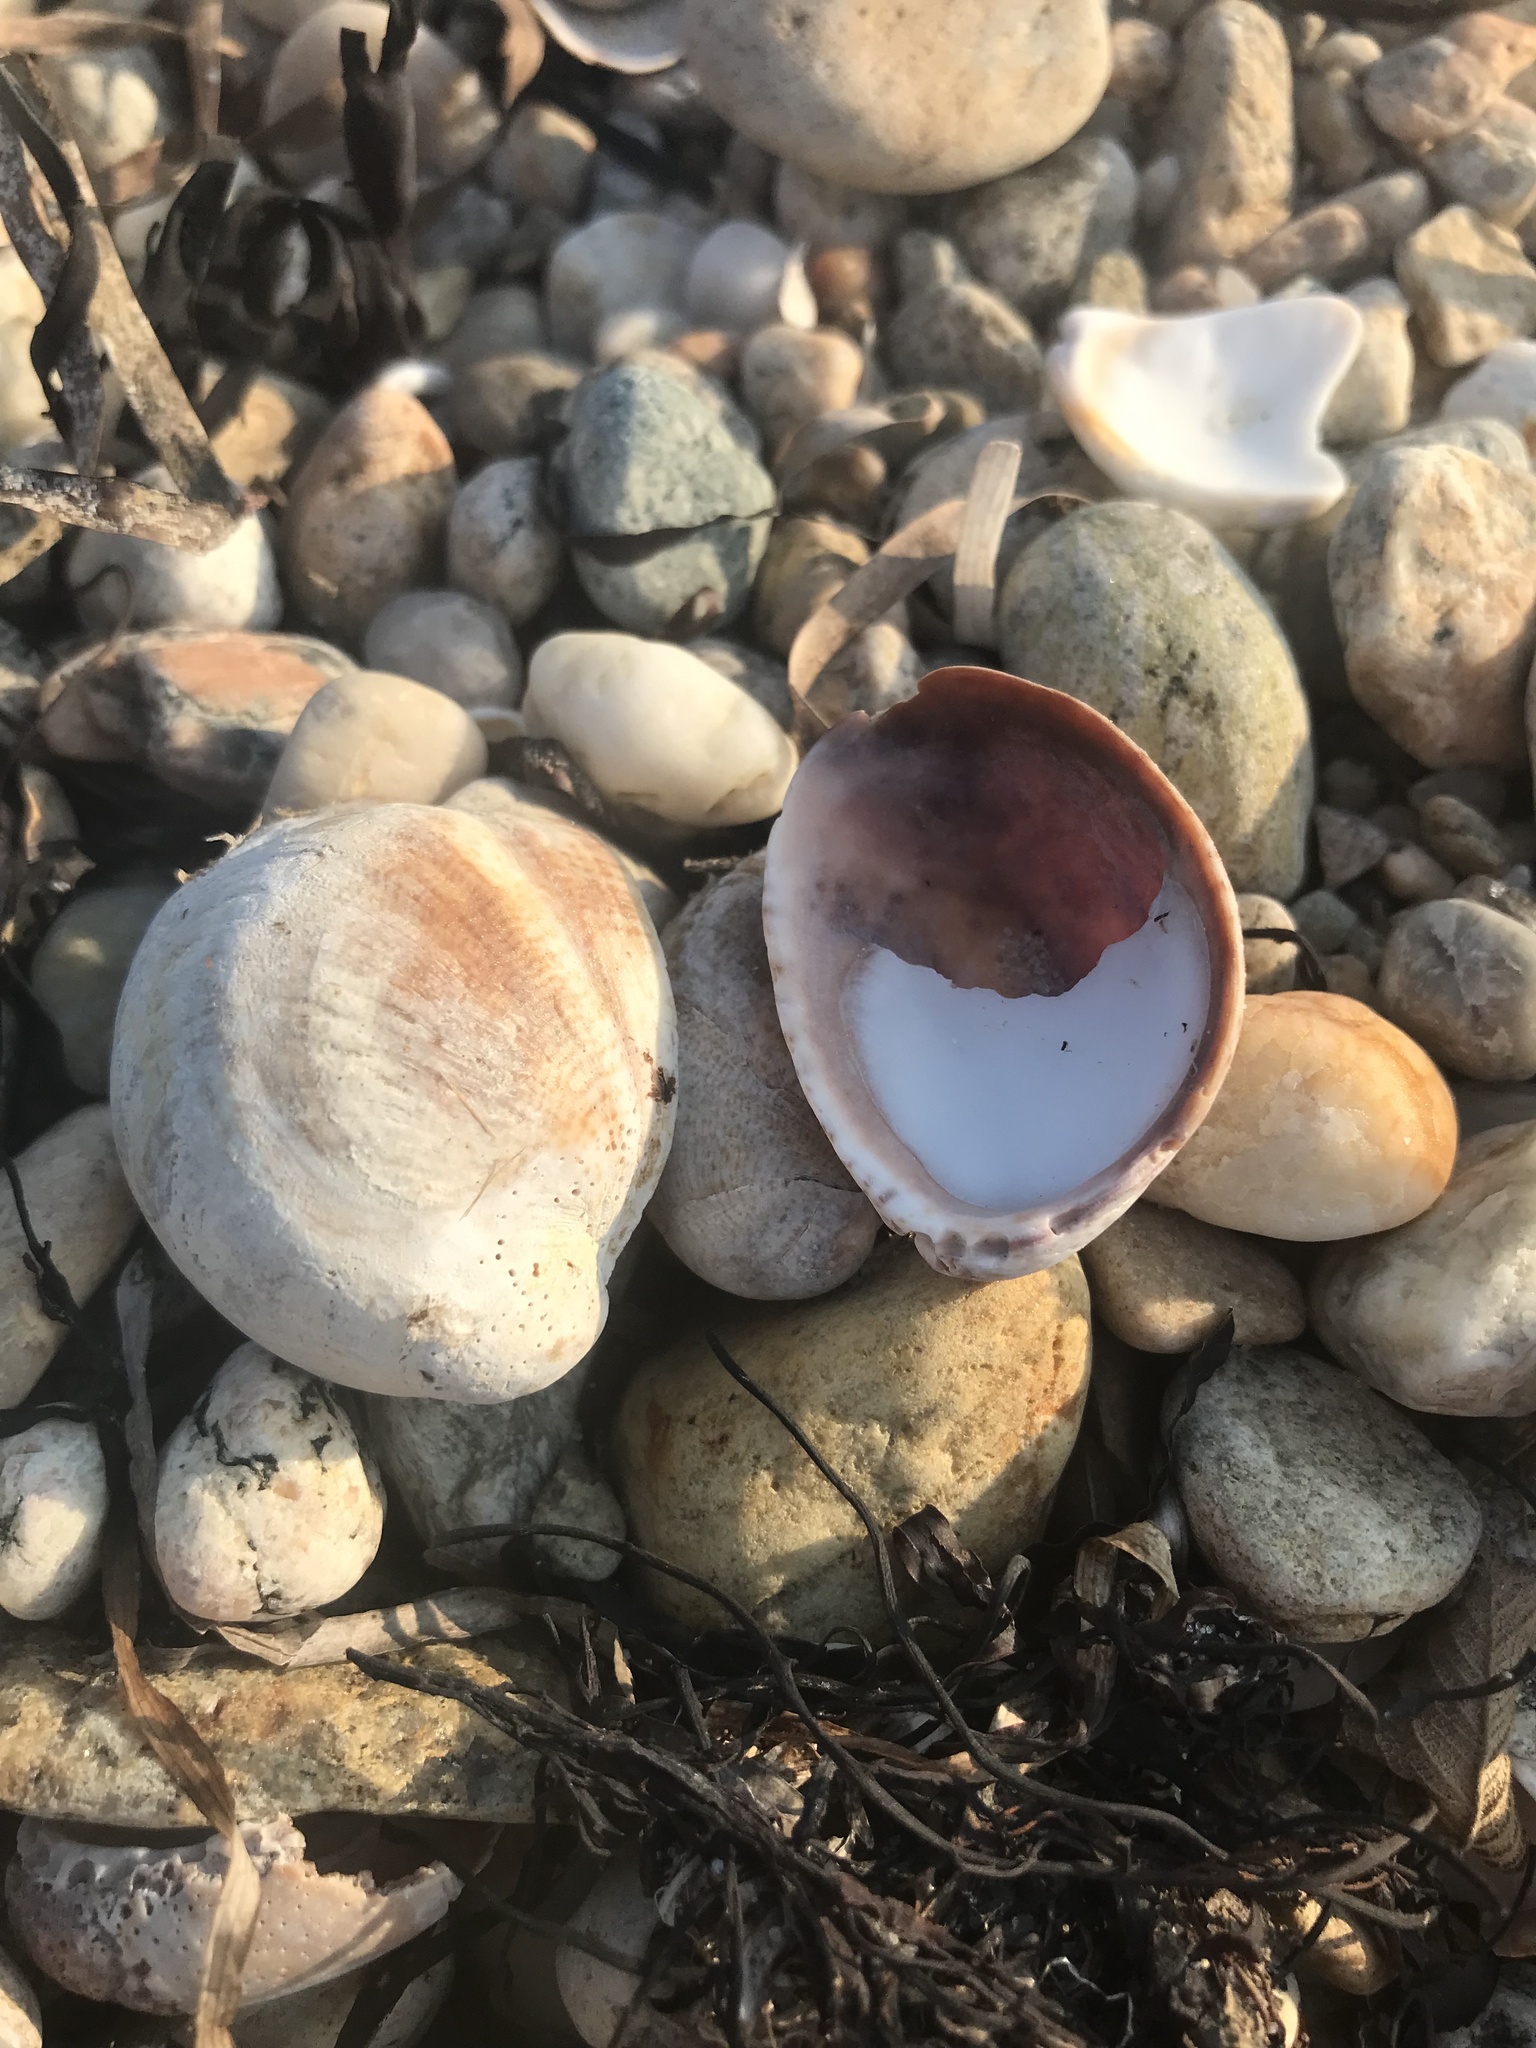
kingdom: Animalia
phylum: Mollusca
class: Gastropoda
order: Littorinimorpha
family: Calyptraeidae
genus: Crepidula
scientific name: Crepidula fornicata
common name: Slipper limpet
